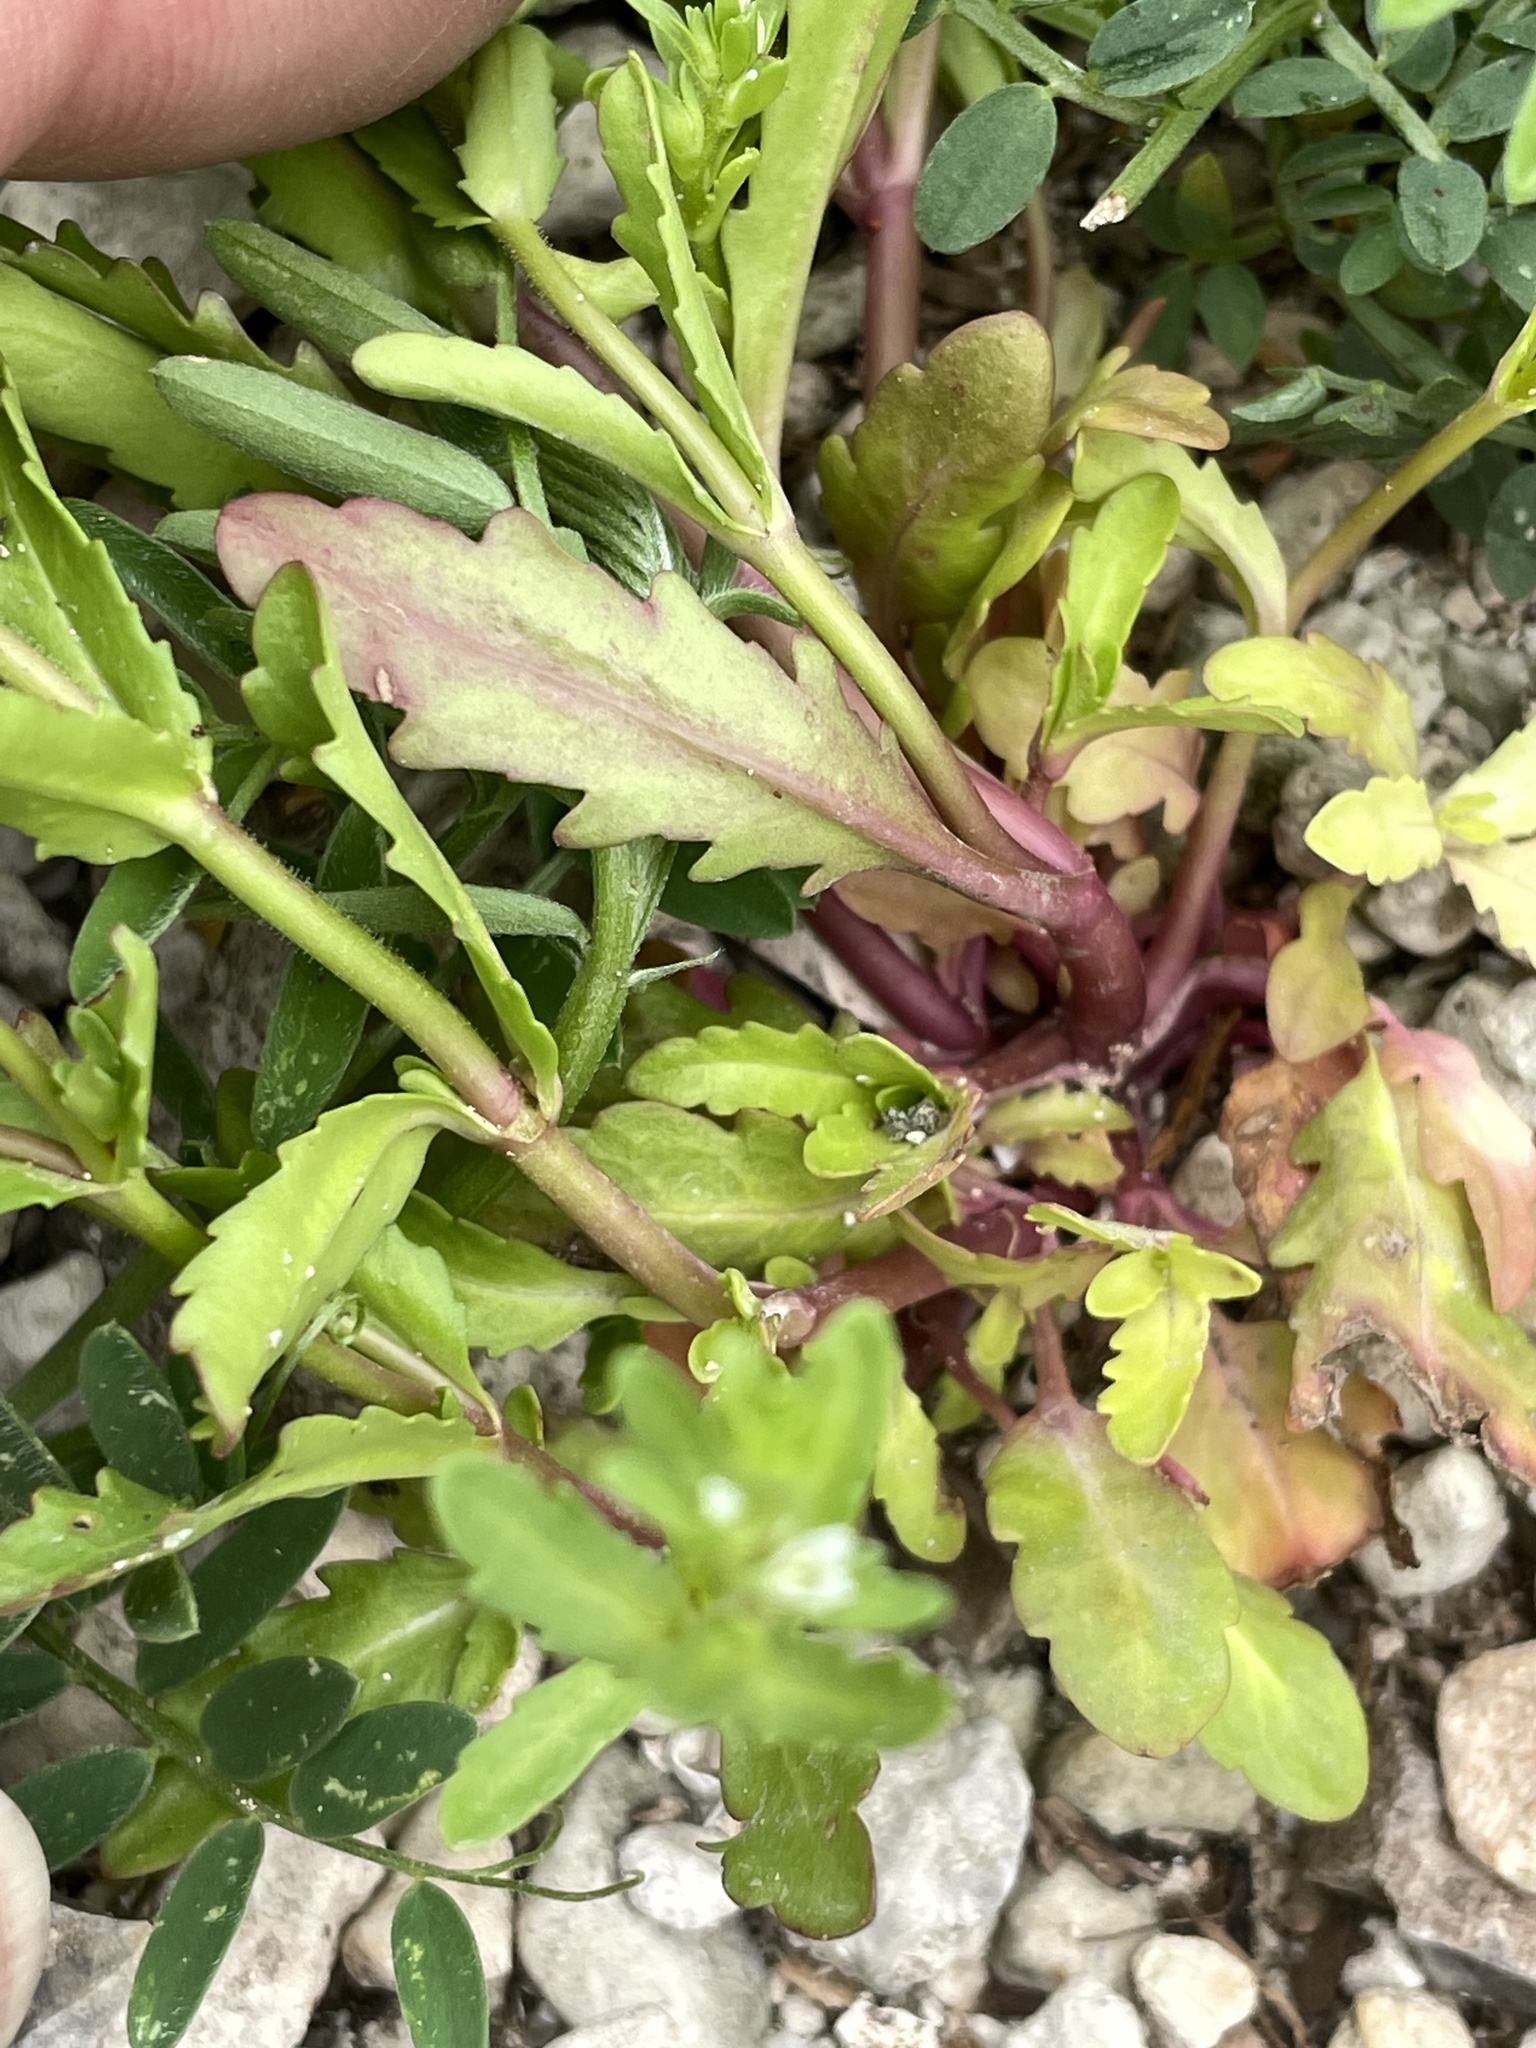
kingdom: Plantae
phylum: Tracheophyta
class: Magnoliopsida
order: Lamiales
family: Plantaginaceae
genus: Veronica
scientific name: Veronica peregrina
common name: Neckweed
